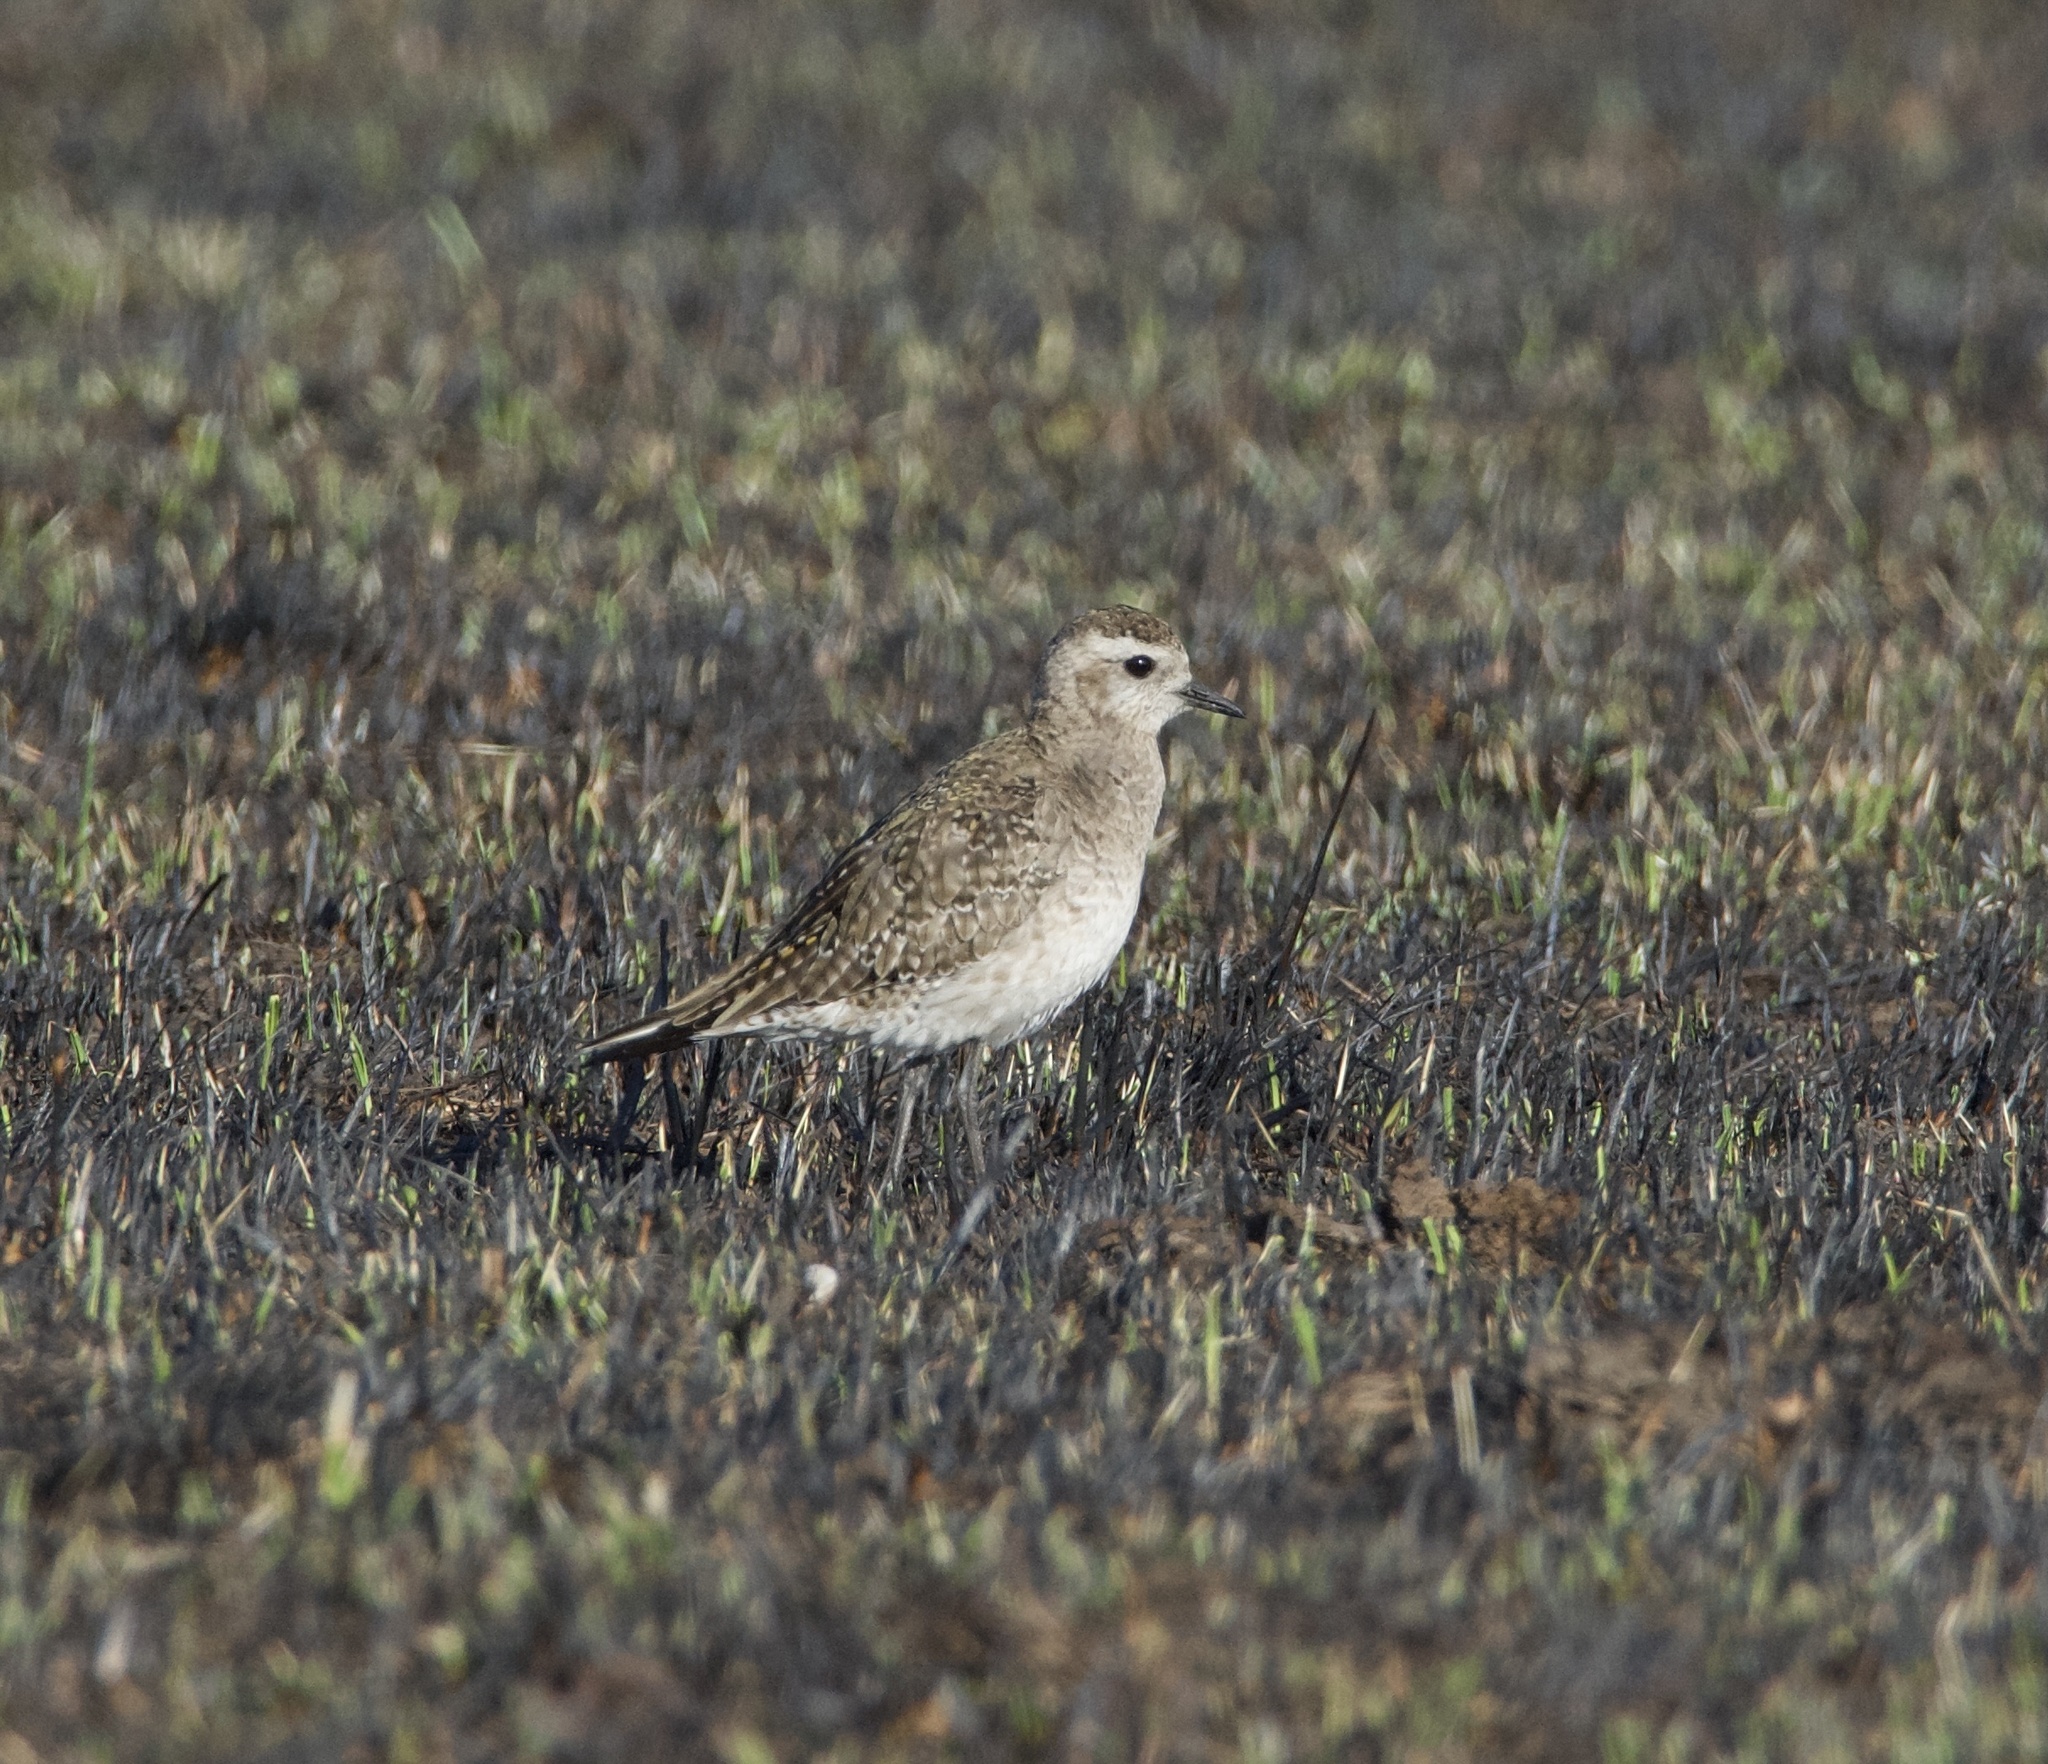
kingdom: Animalia
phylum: Chordata
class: Aves
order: Charadriiformes
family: Charadriidae
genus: Pluvialis
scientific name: Pluvialis dominica
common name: American golden plover
